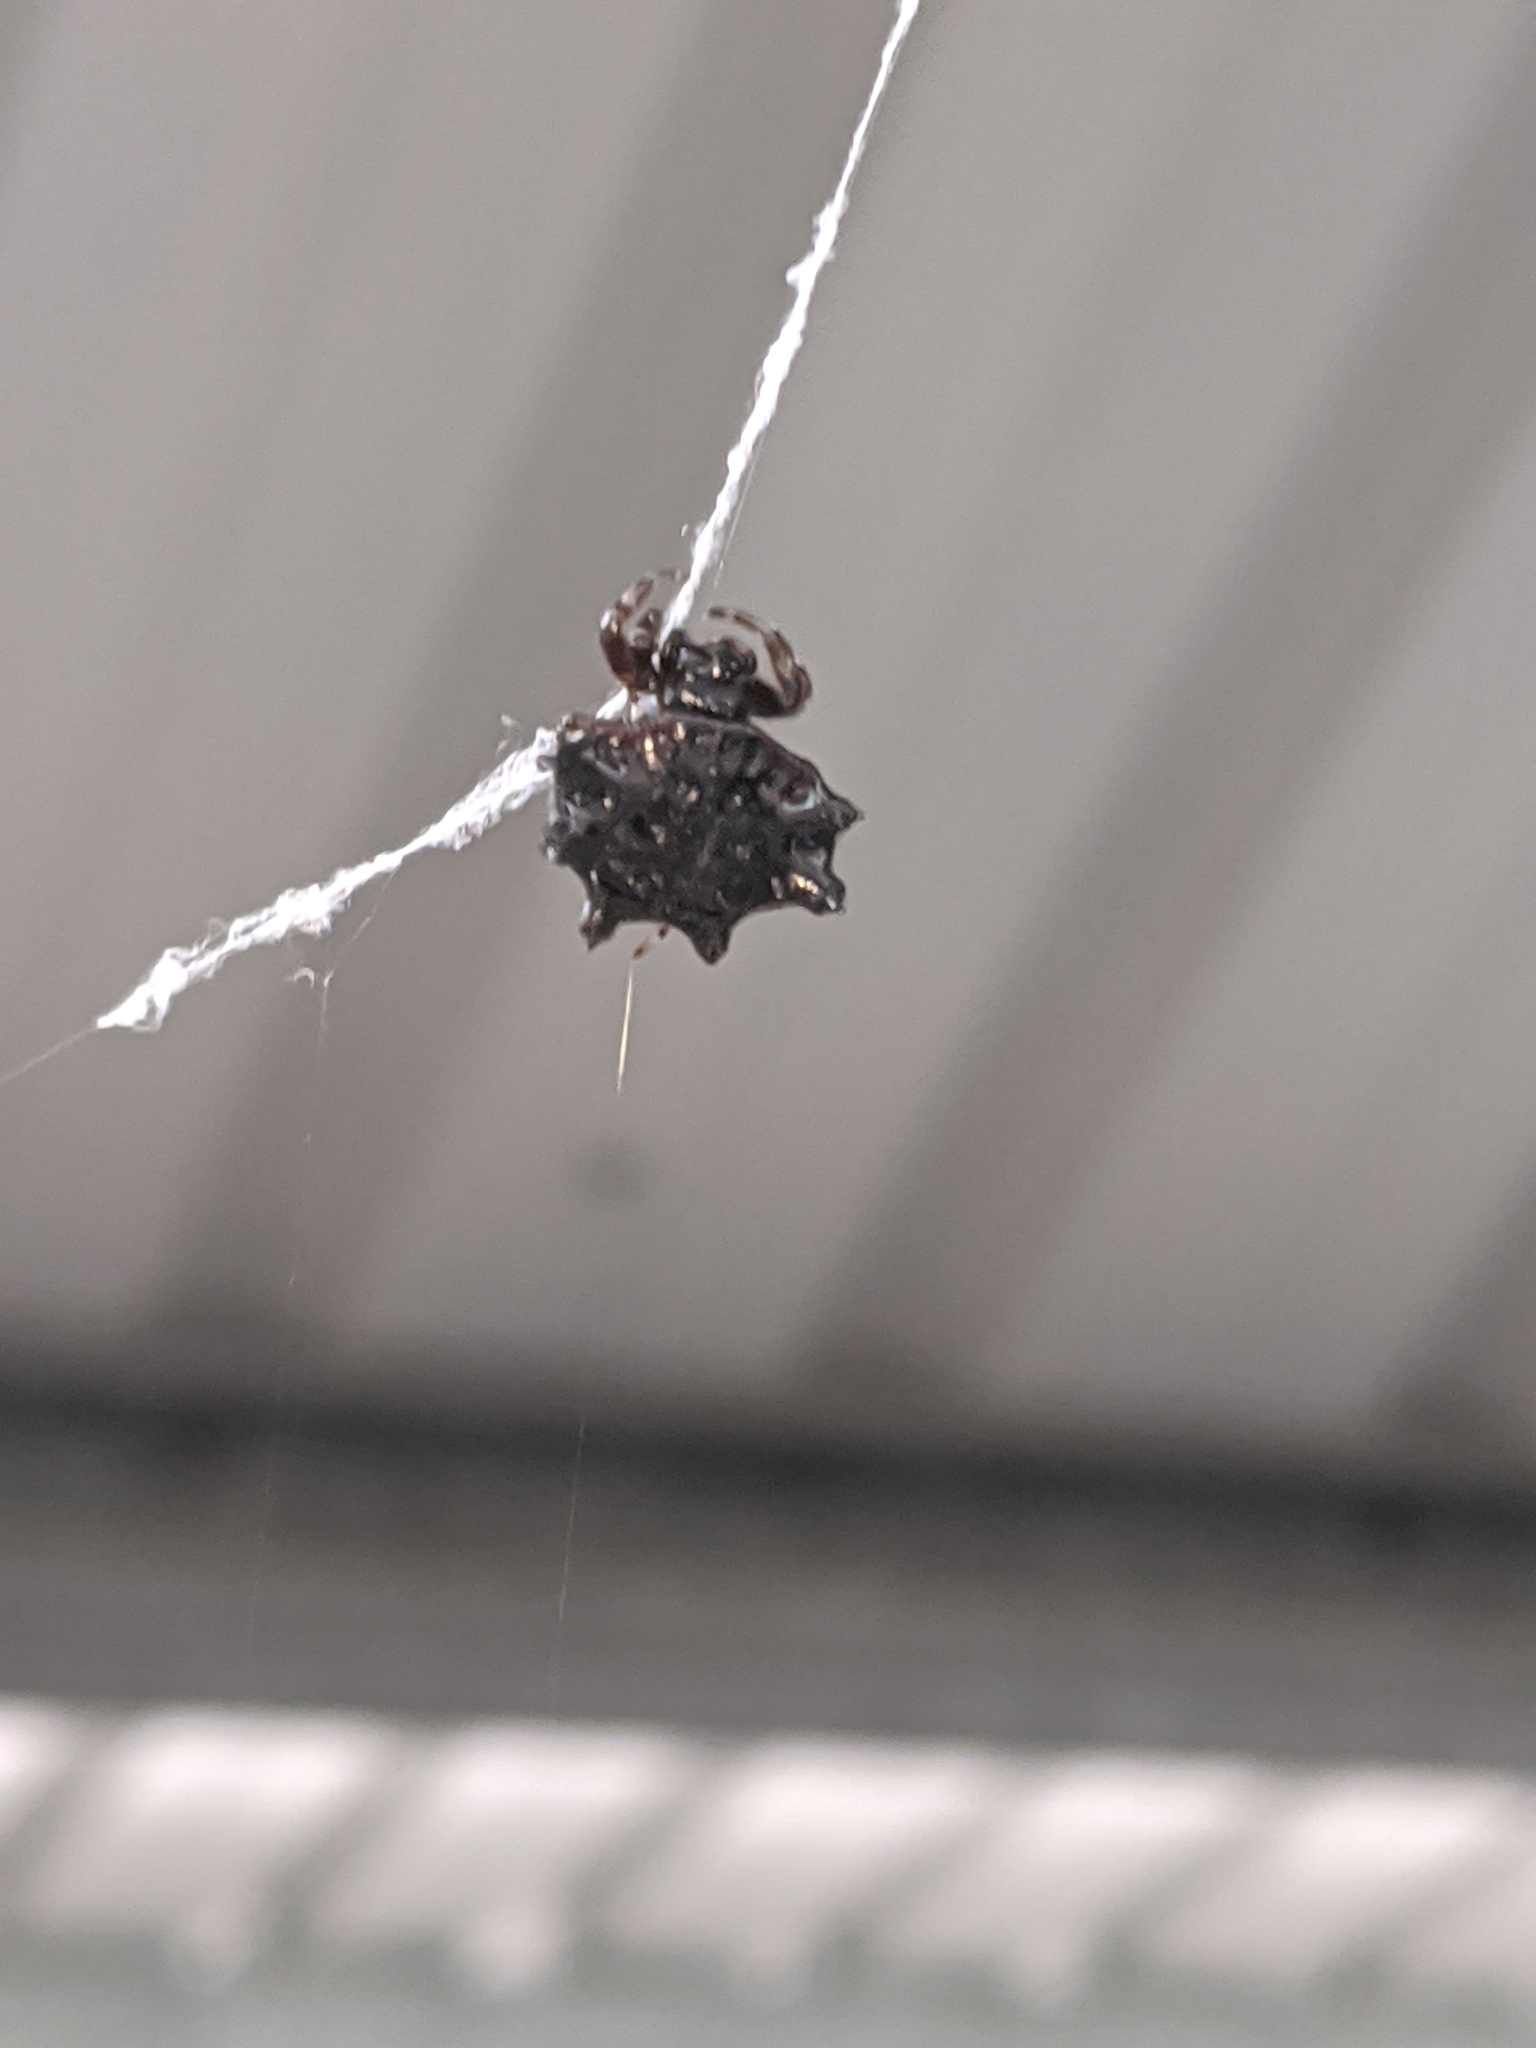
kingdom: Animalia
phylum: Arthropoda
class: Arachnida
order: Araneae
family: Araneidae
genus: Thelacantha
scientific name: Thelacantha brevispina
